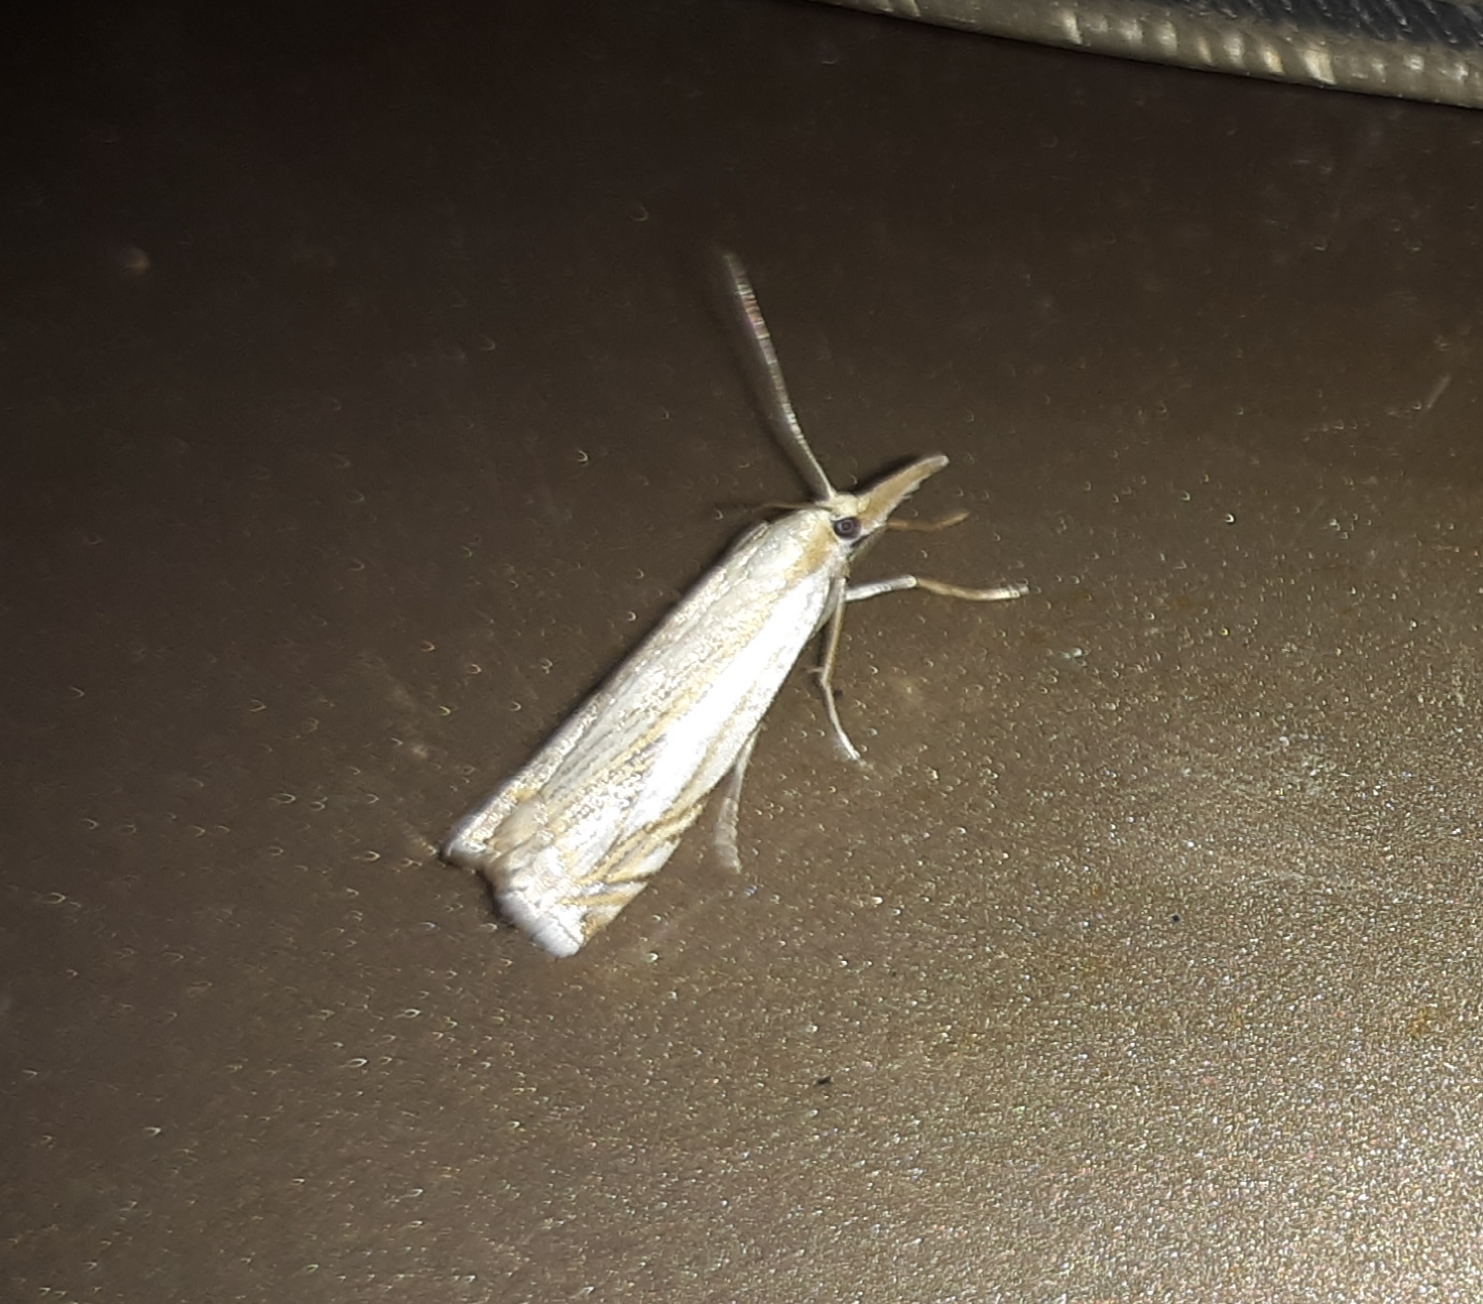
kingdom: Animalia
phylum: Arthropoda
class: Insecta
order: Lepidoptera
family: Crambidae
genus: Crambus
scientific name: Crambus saltuellus
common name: Pasture grass-veneer
